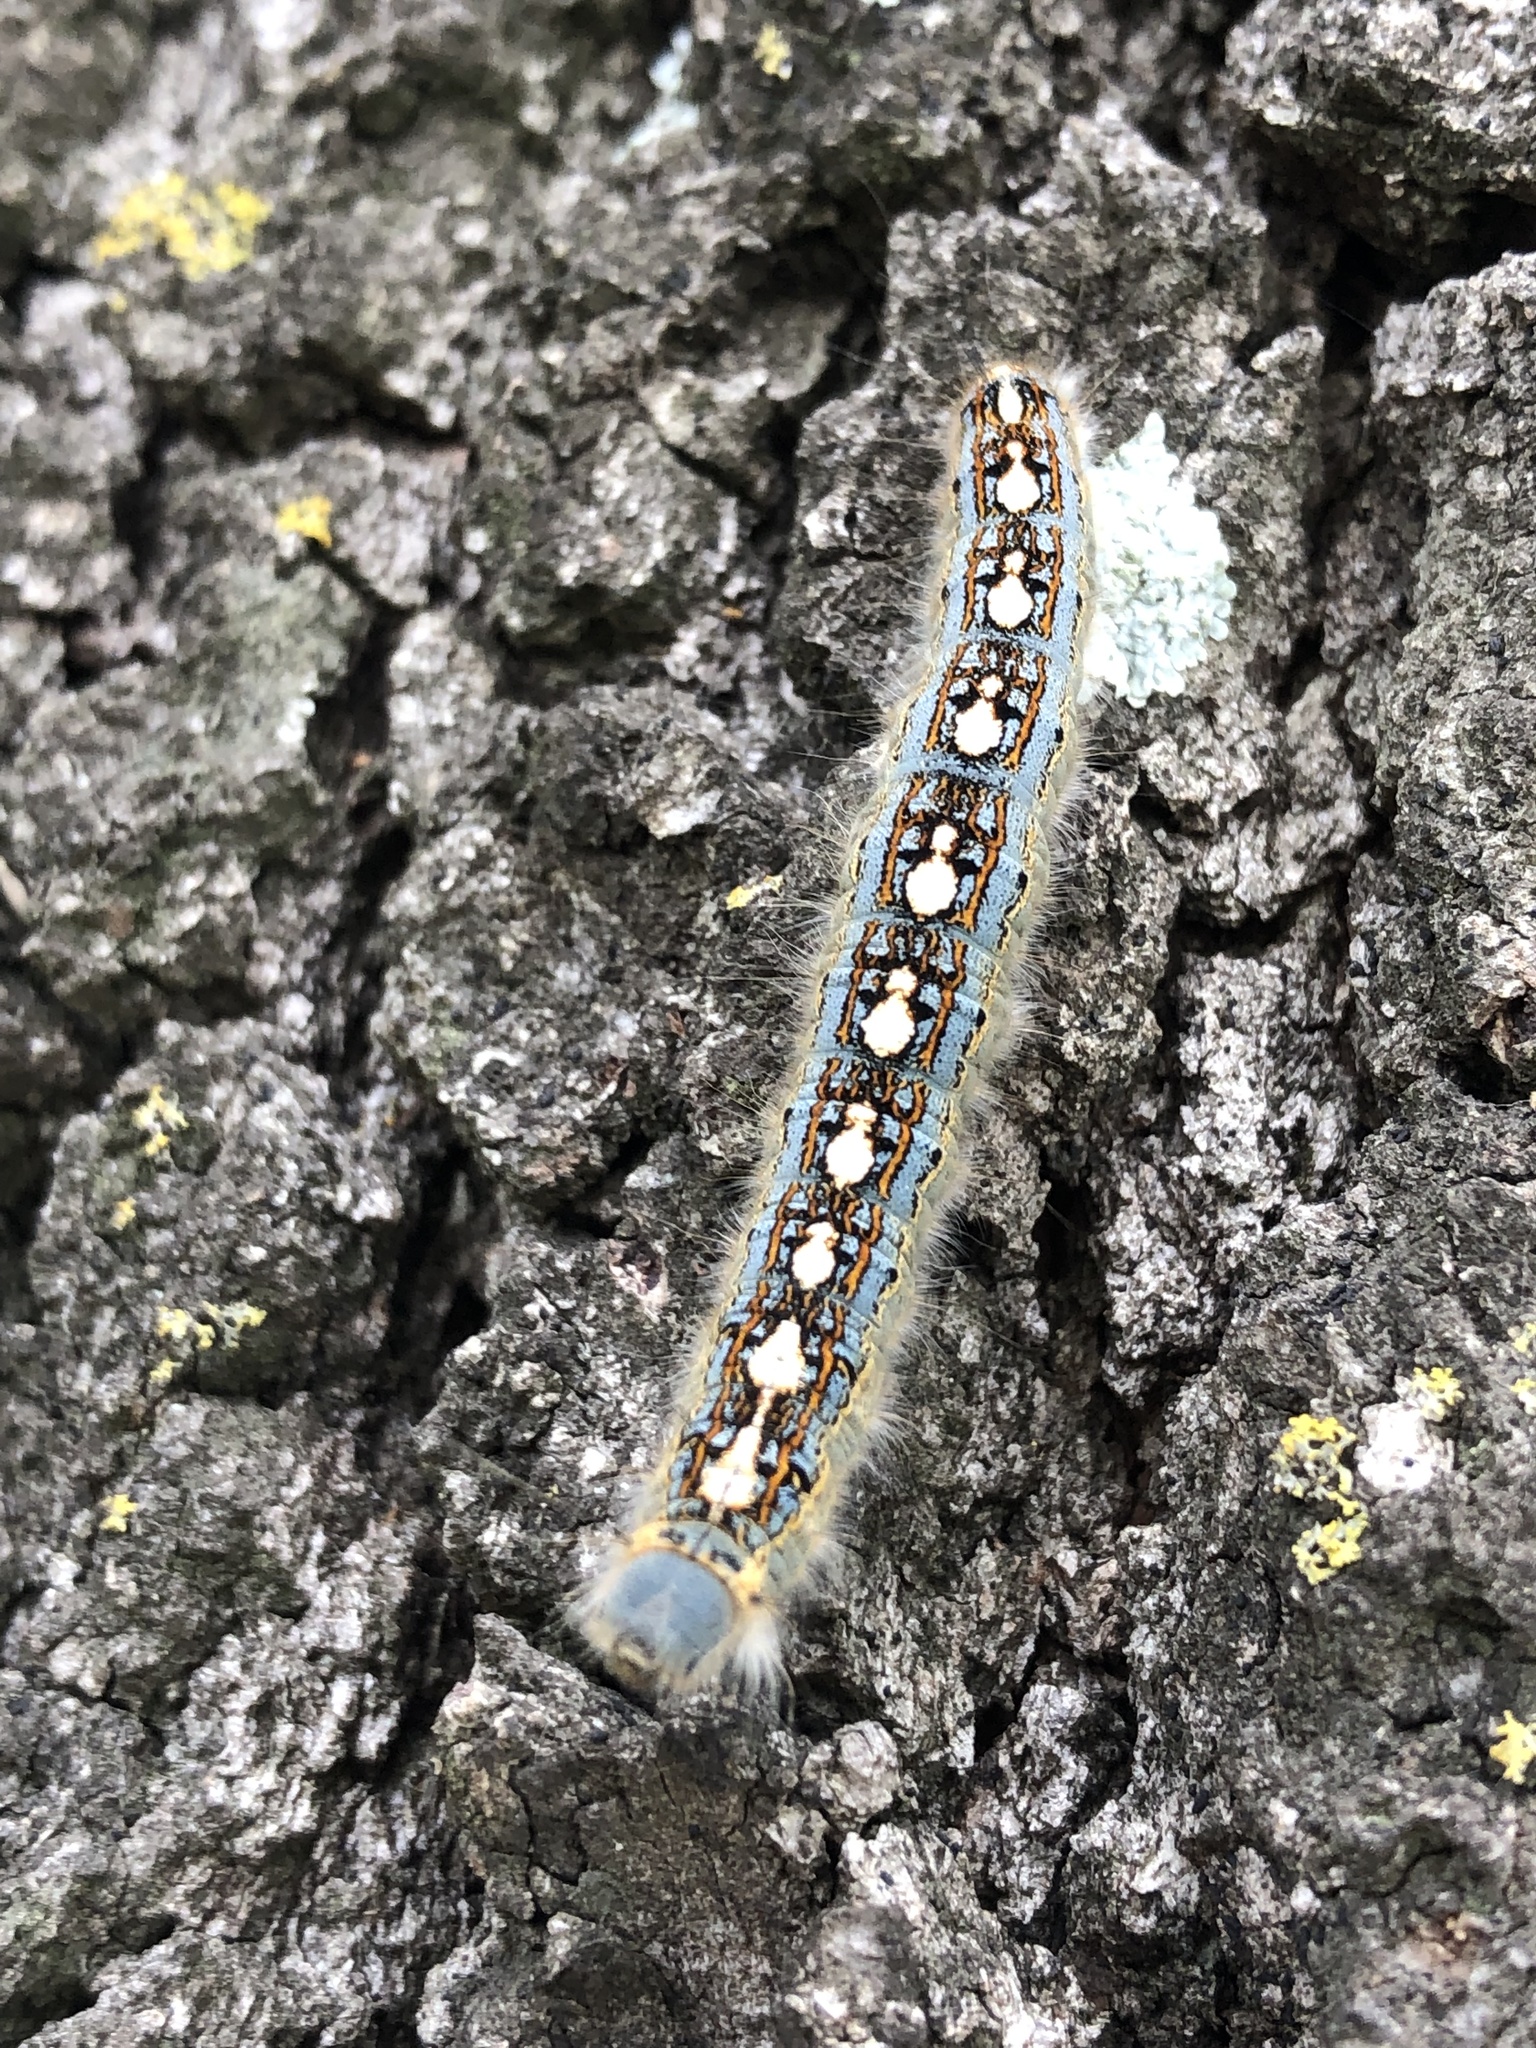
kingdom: Animalia
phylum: Arthropoda
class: Insecta
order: Lepidoptera
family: Lasiocampidae
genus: Malacosoma
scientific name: Malacosoma disstria
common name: Forest tent caterpillar
